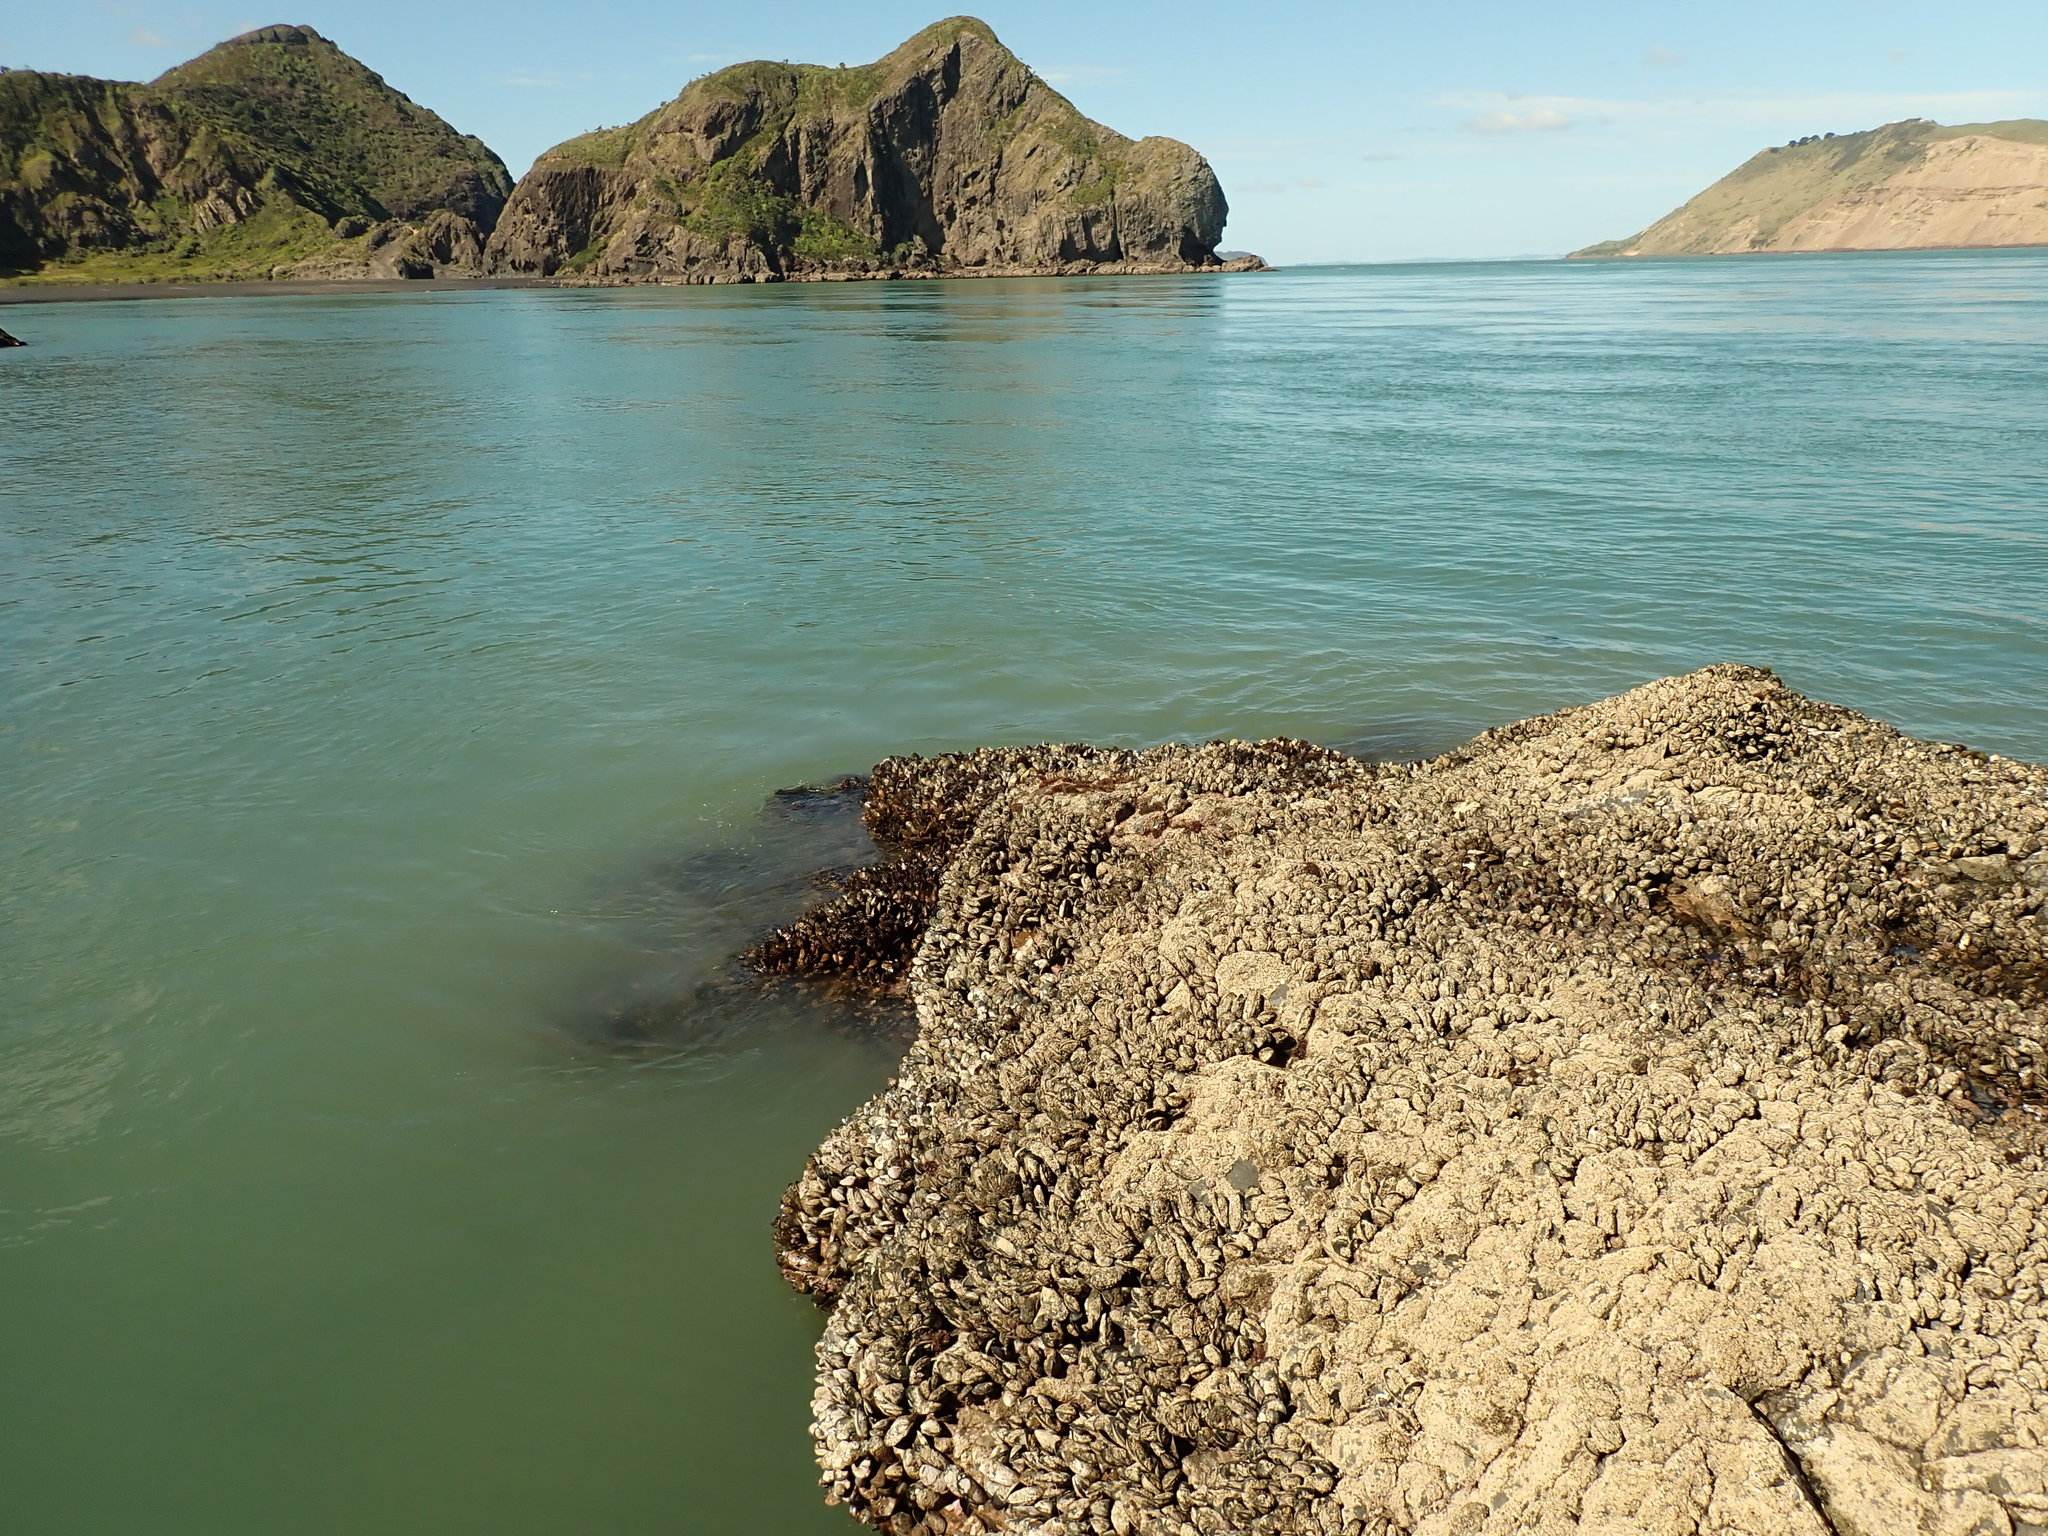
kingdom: Animalia
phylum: Mollusca
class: Bivalvia
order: Mytilida
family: Mytilidae
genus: Perna
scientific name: Perna canaliculus
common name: New zealand greenshelltm
